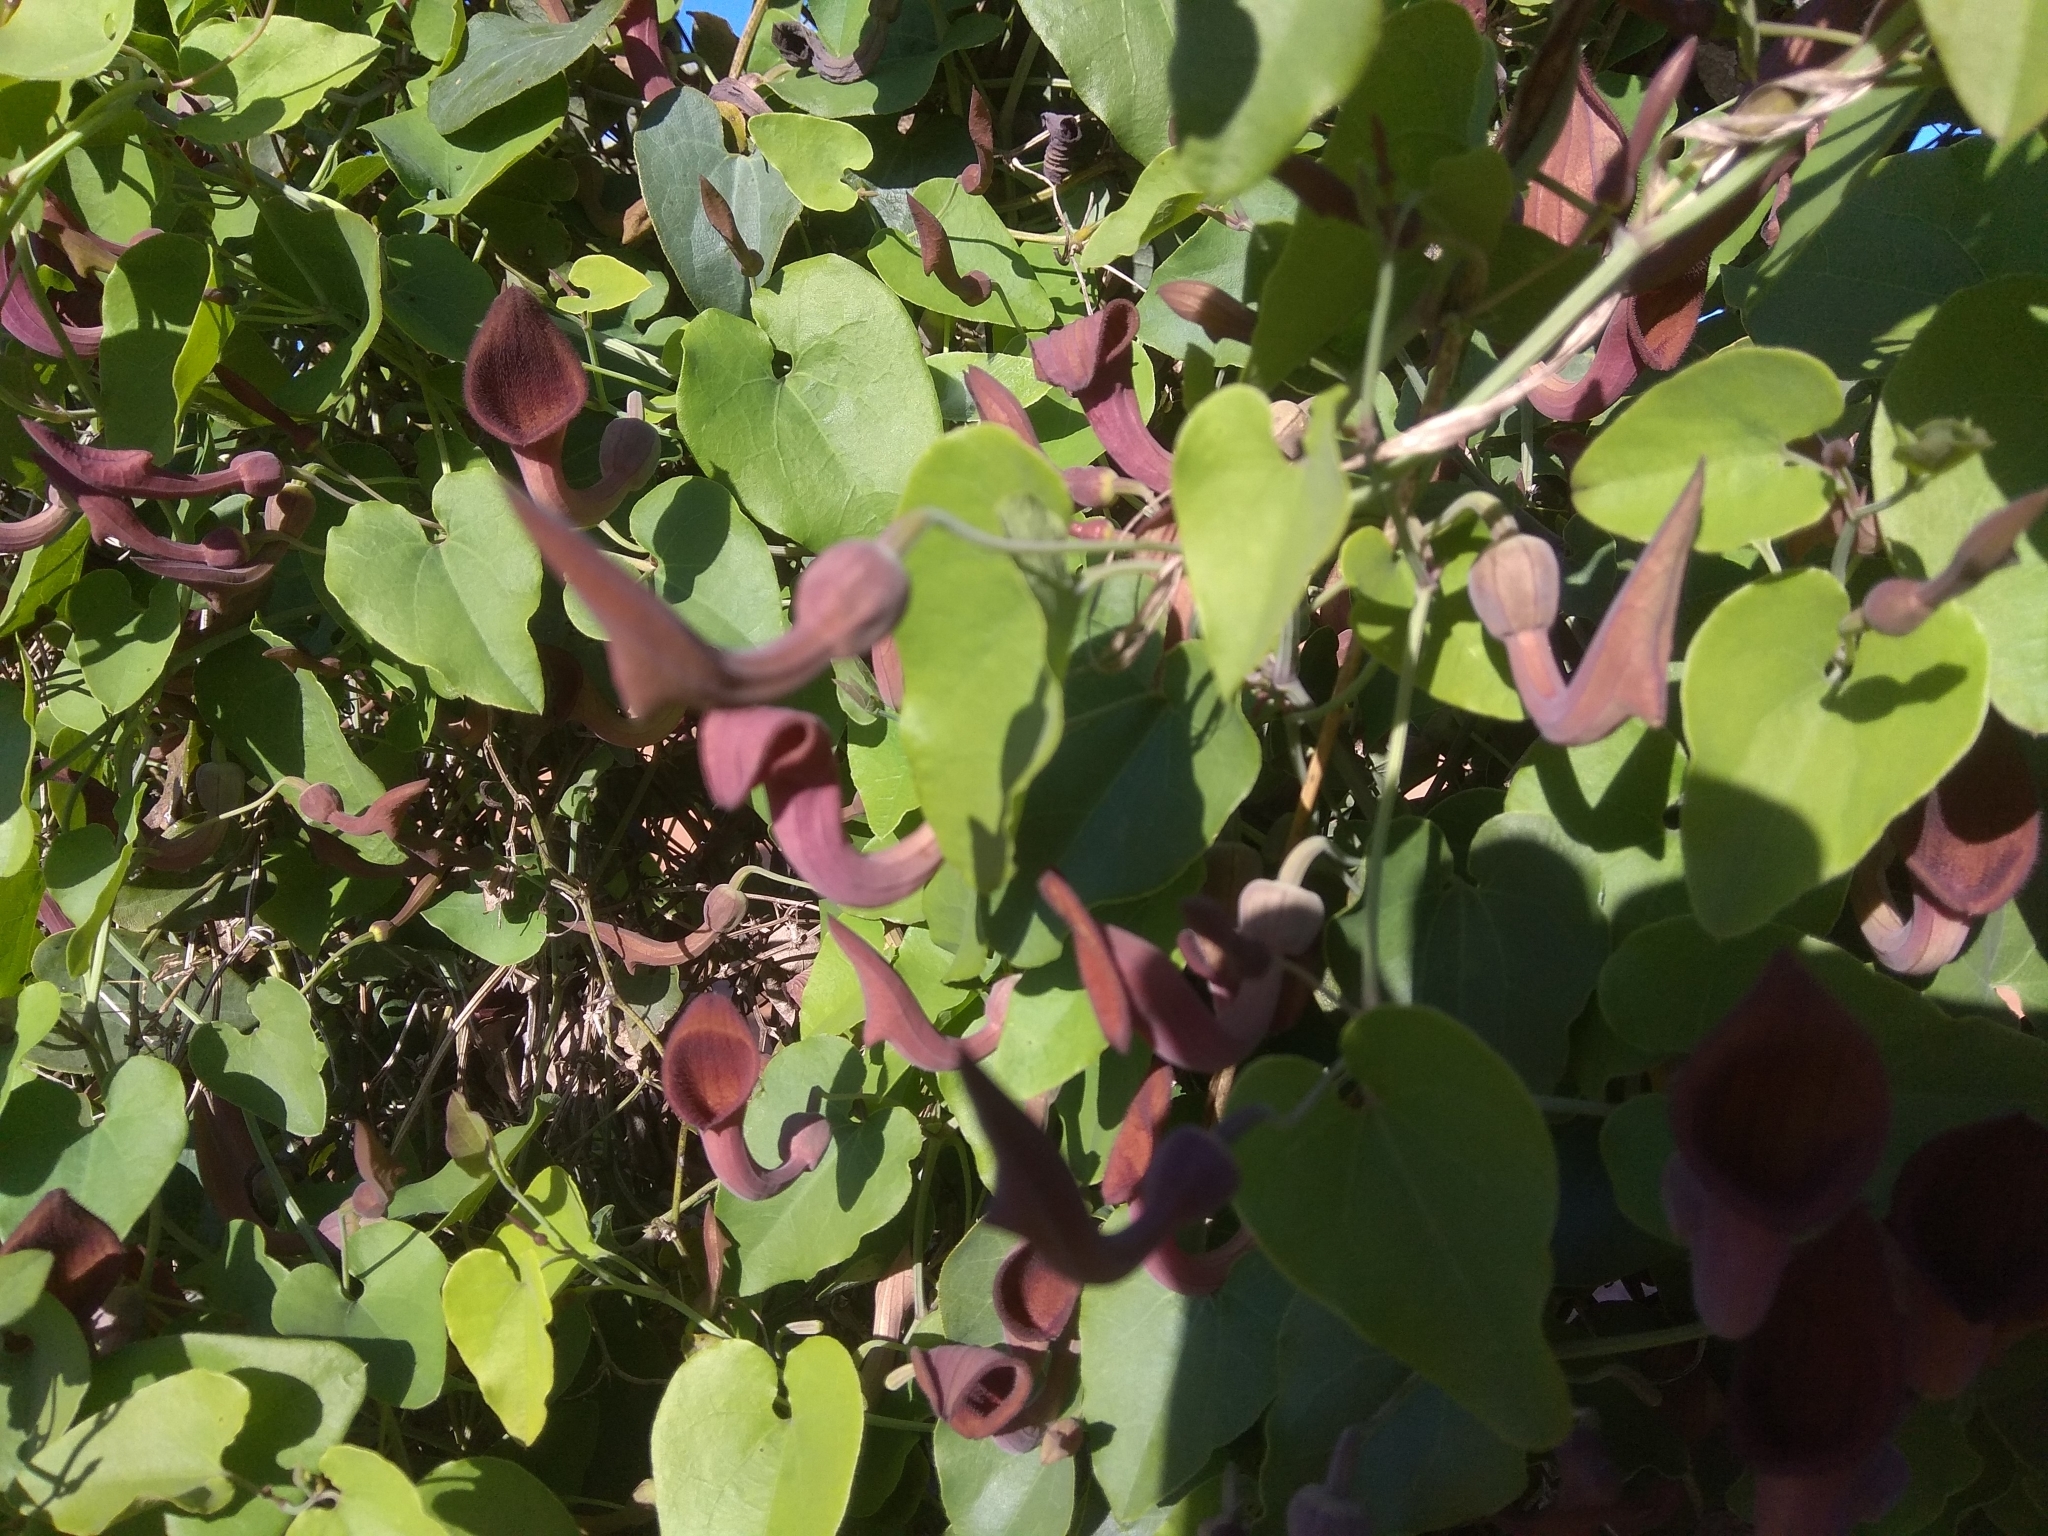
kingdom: Plantae
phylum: Tracheophyta
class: Magnoliopsida
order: Piperales
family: Aristolochiaceae
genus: Aristolochia
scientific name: Aristolochia baetica
